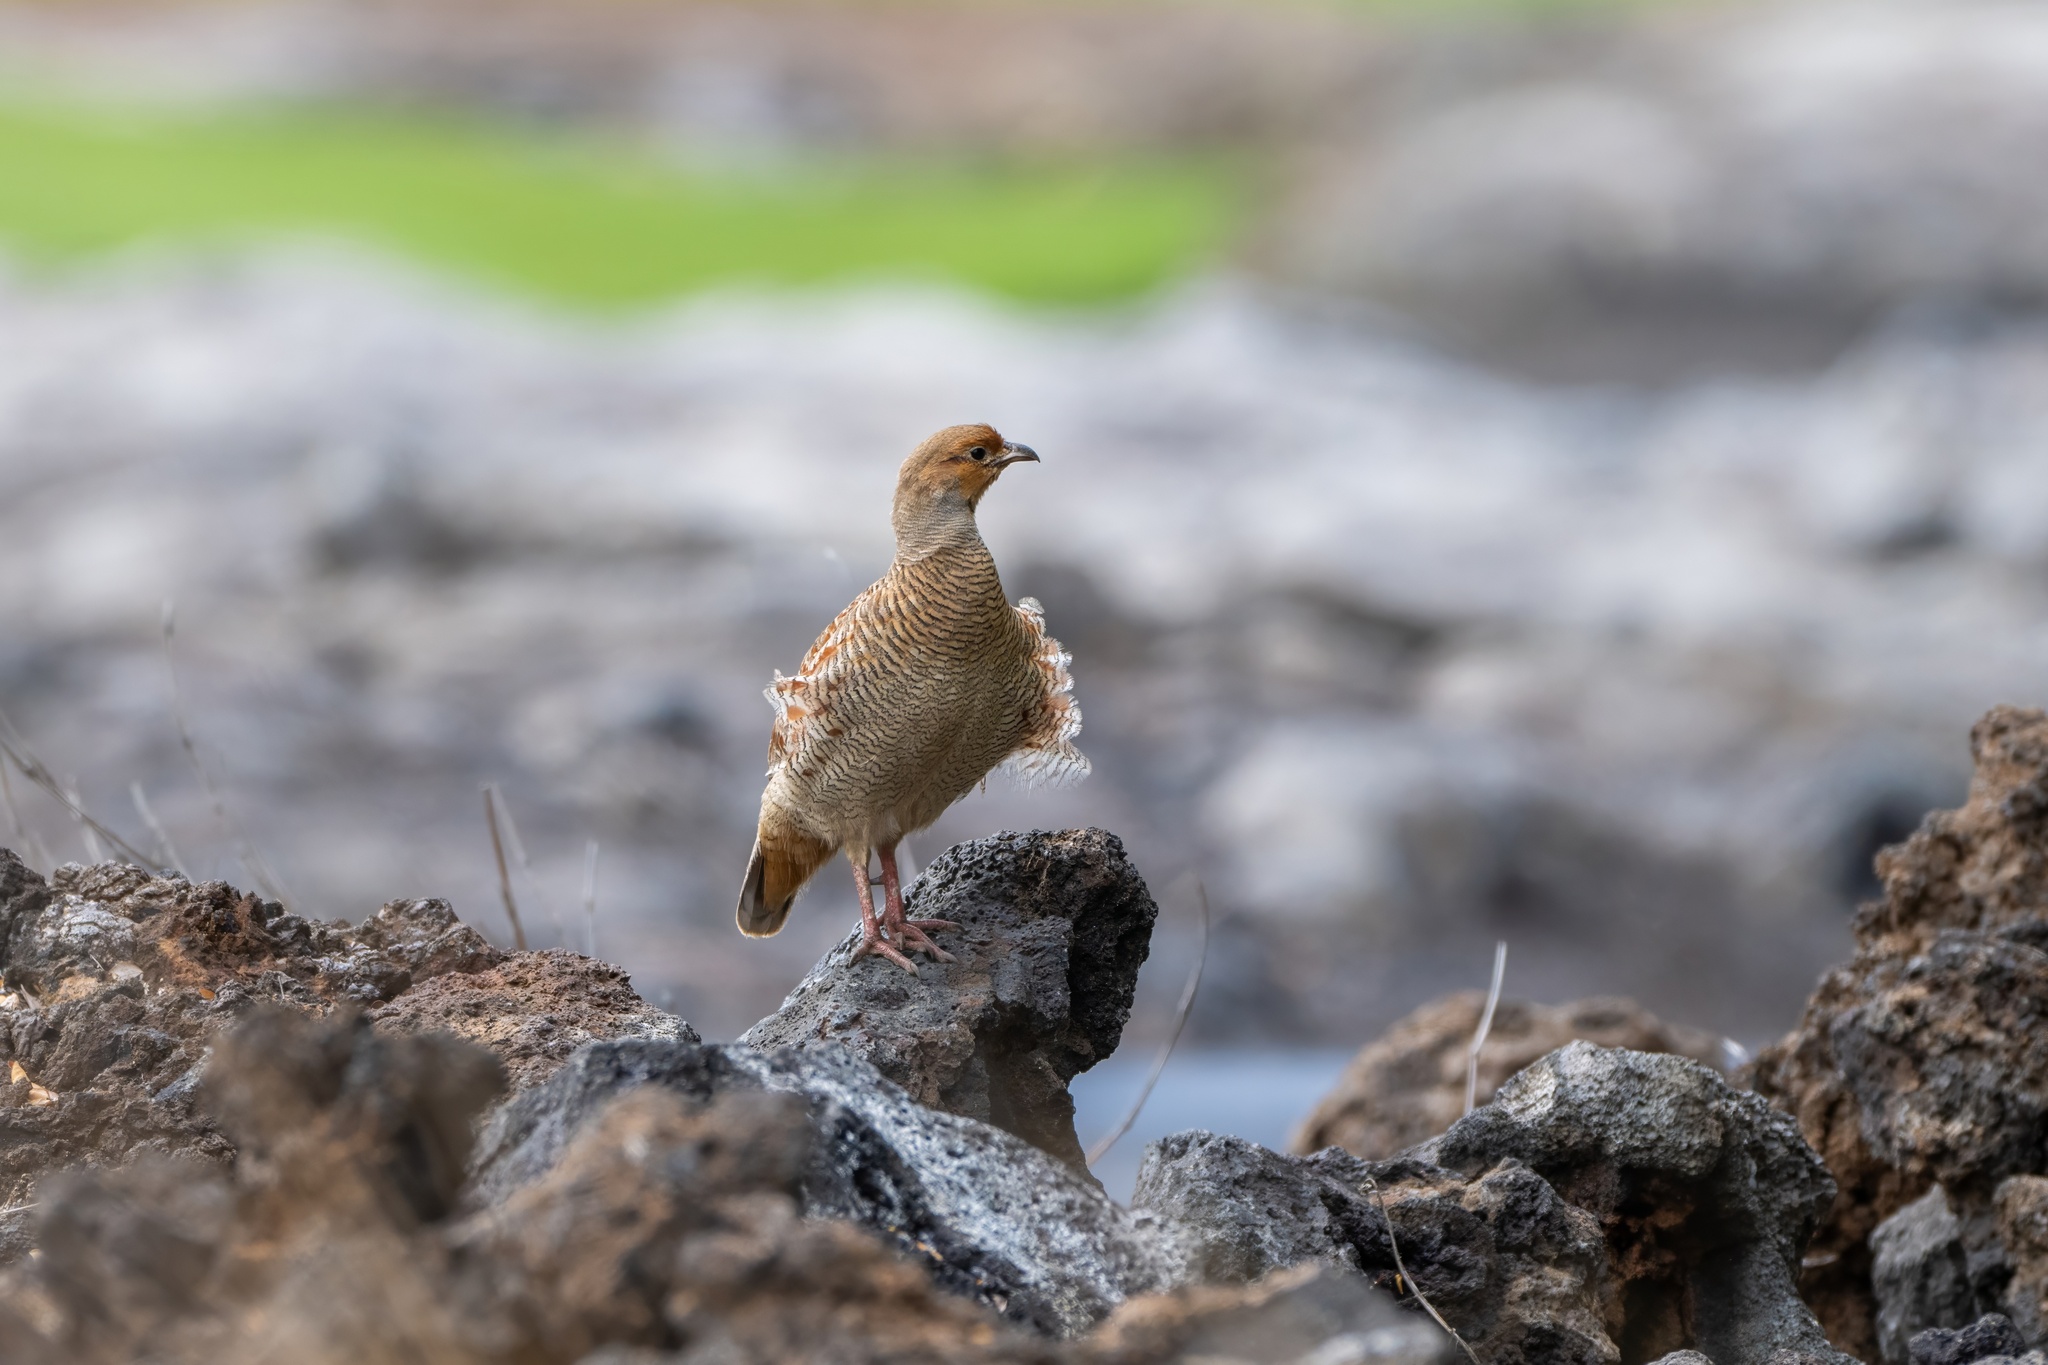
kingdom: Animalia
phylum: Chordata
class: Aves
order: Galliformes
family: Phasianidae
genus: Ortygornis
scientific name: Ortygornis pondicerianus
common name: Grey francolin
